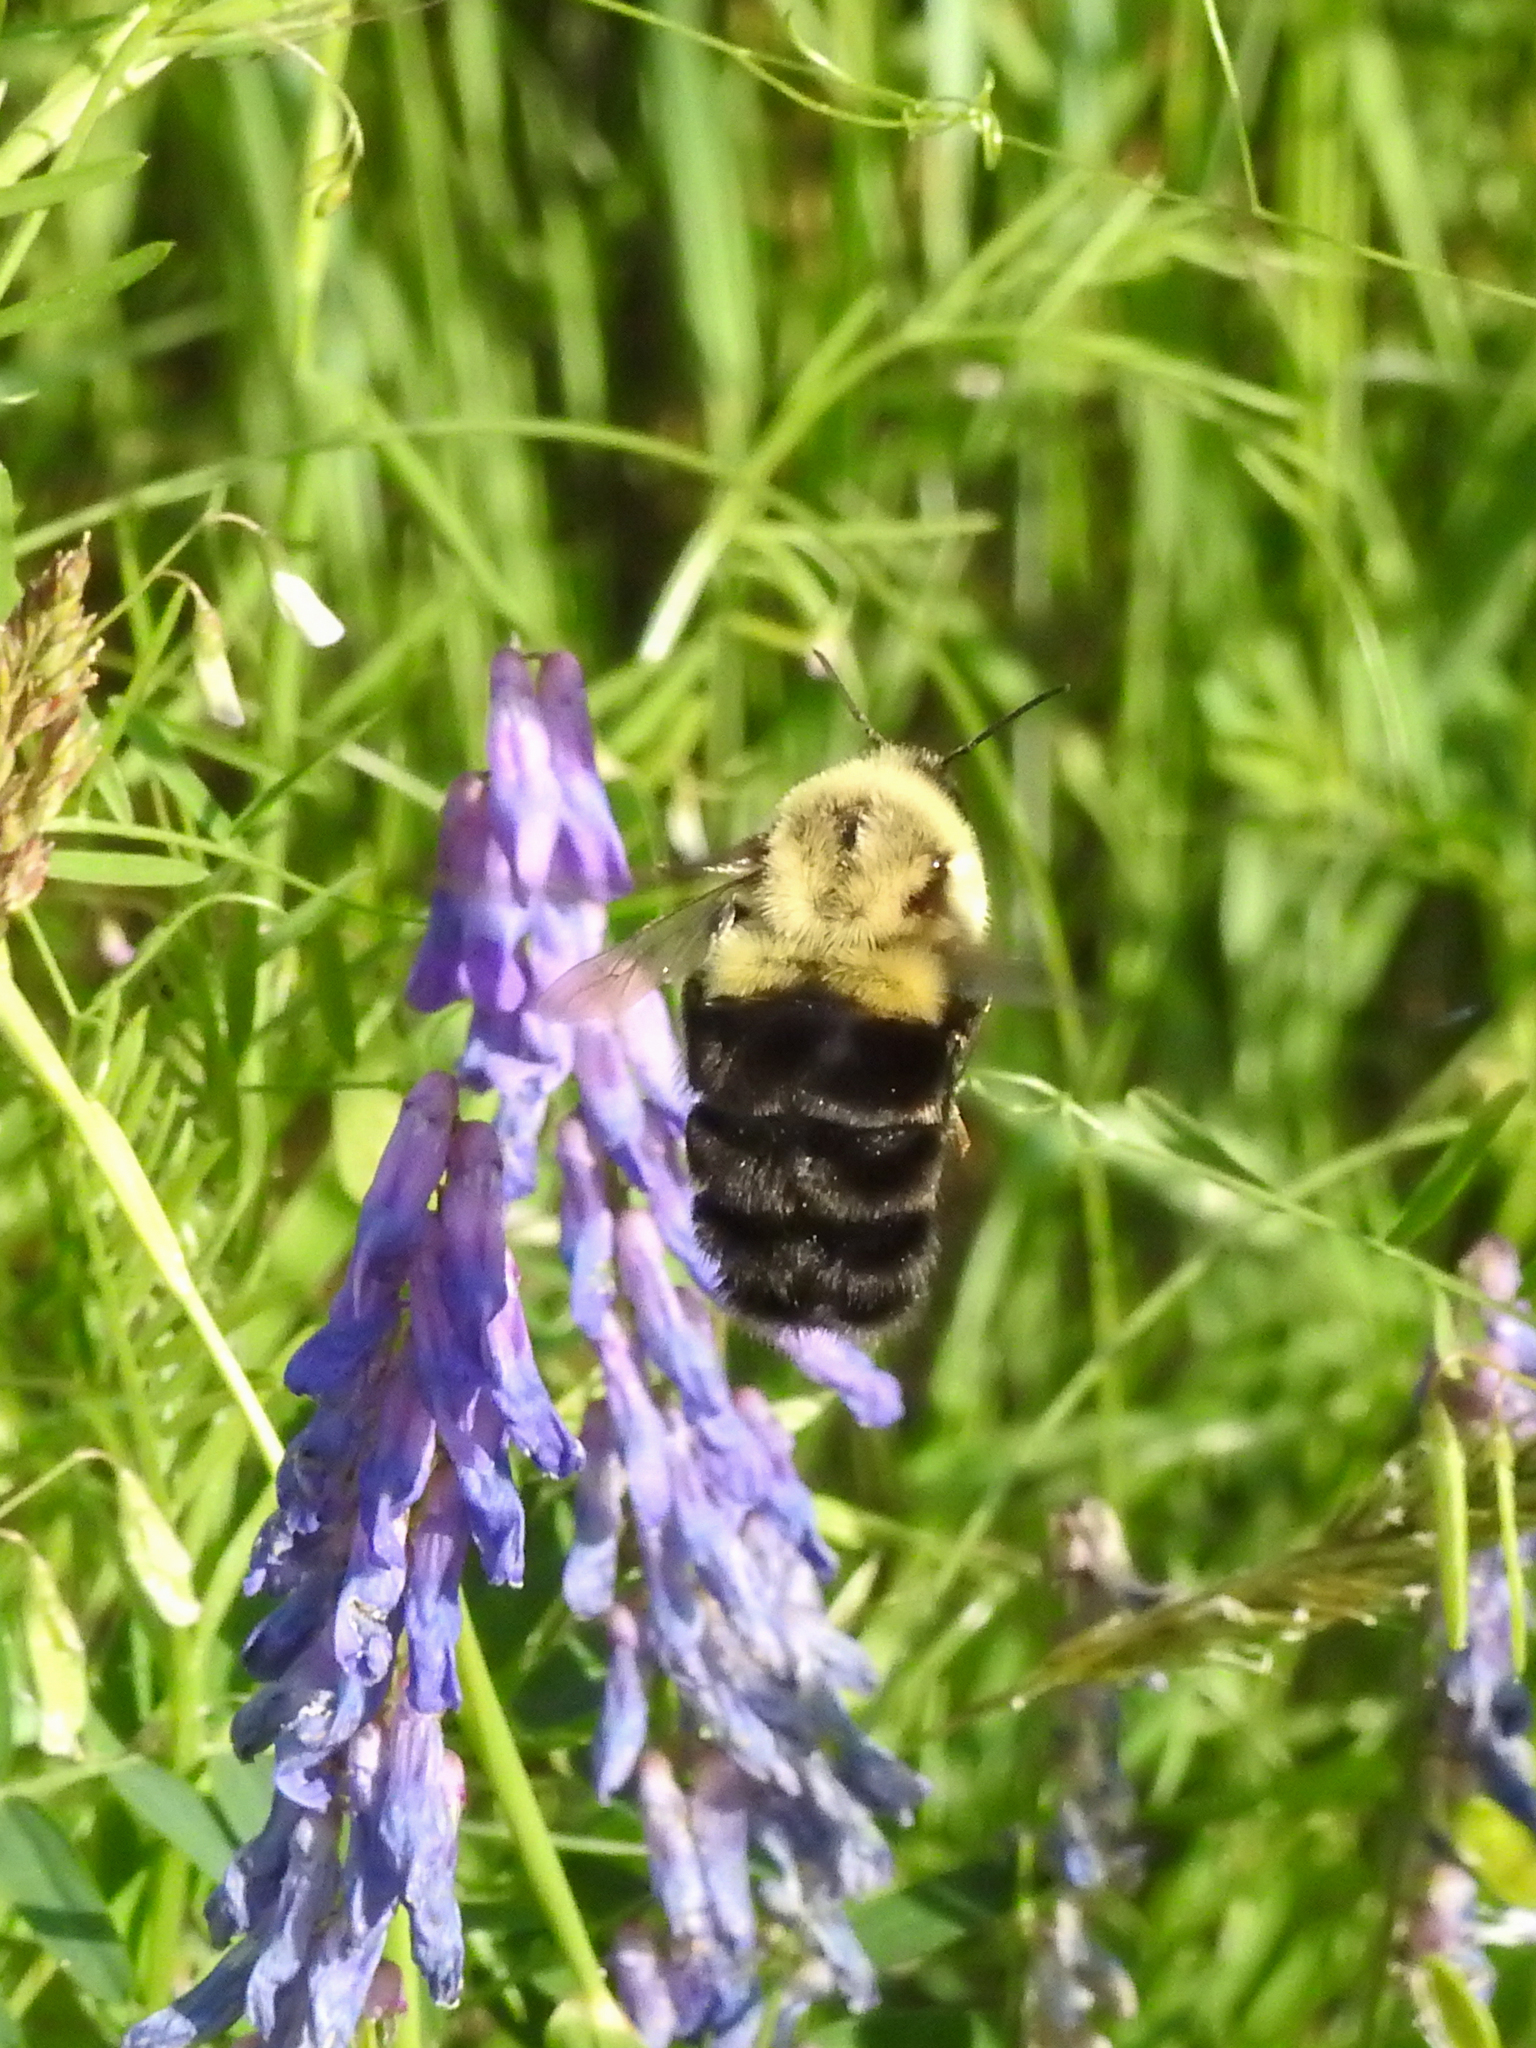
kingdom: Animalia
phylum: Arthropoda
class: Insecta
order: Hymenoptera
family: Apidae
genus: Bombus
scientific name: Bombus impatiens
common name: Common eastern bumble bee
